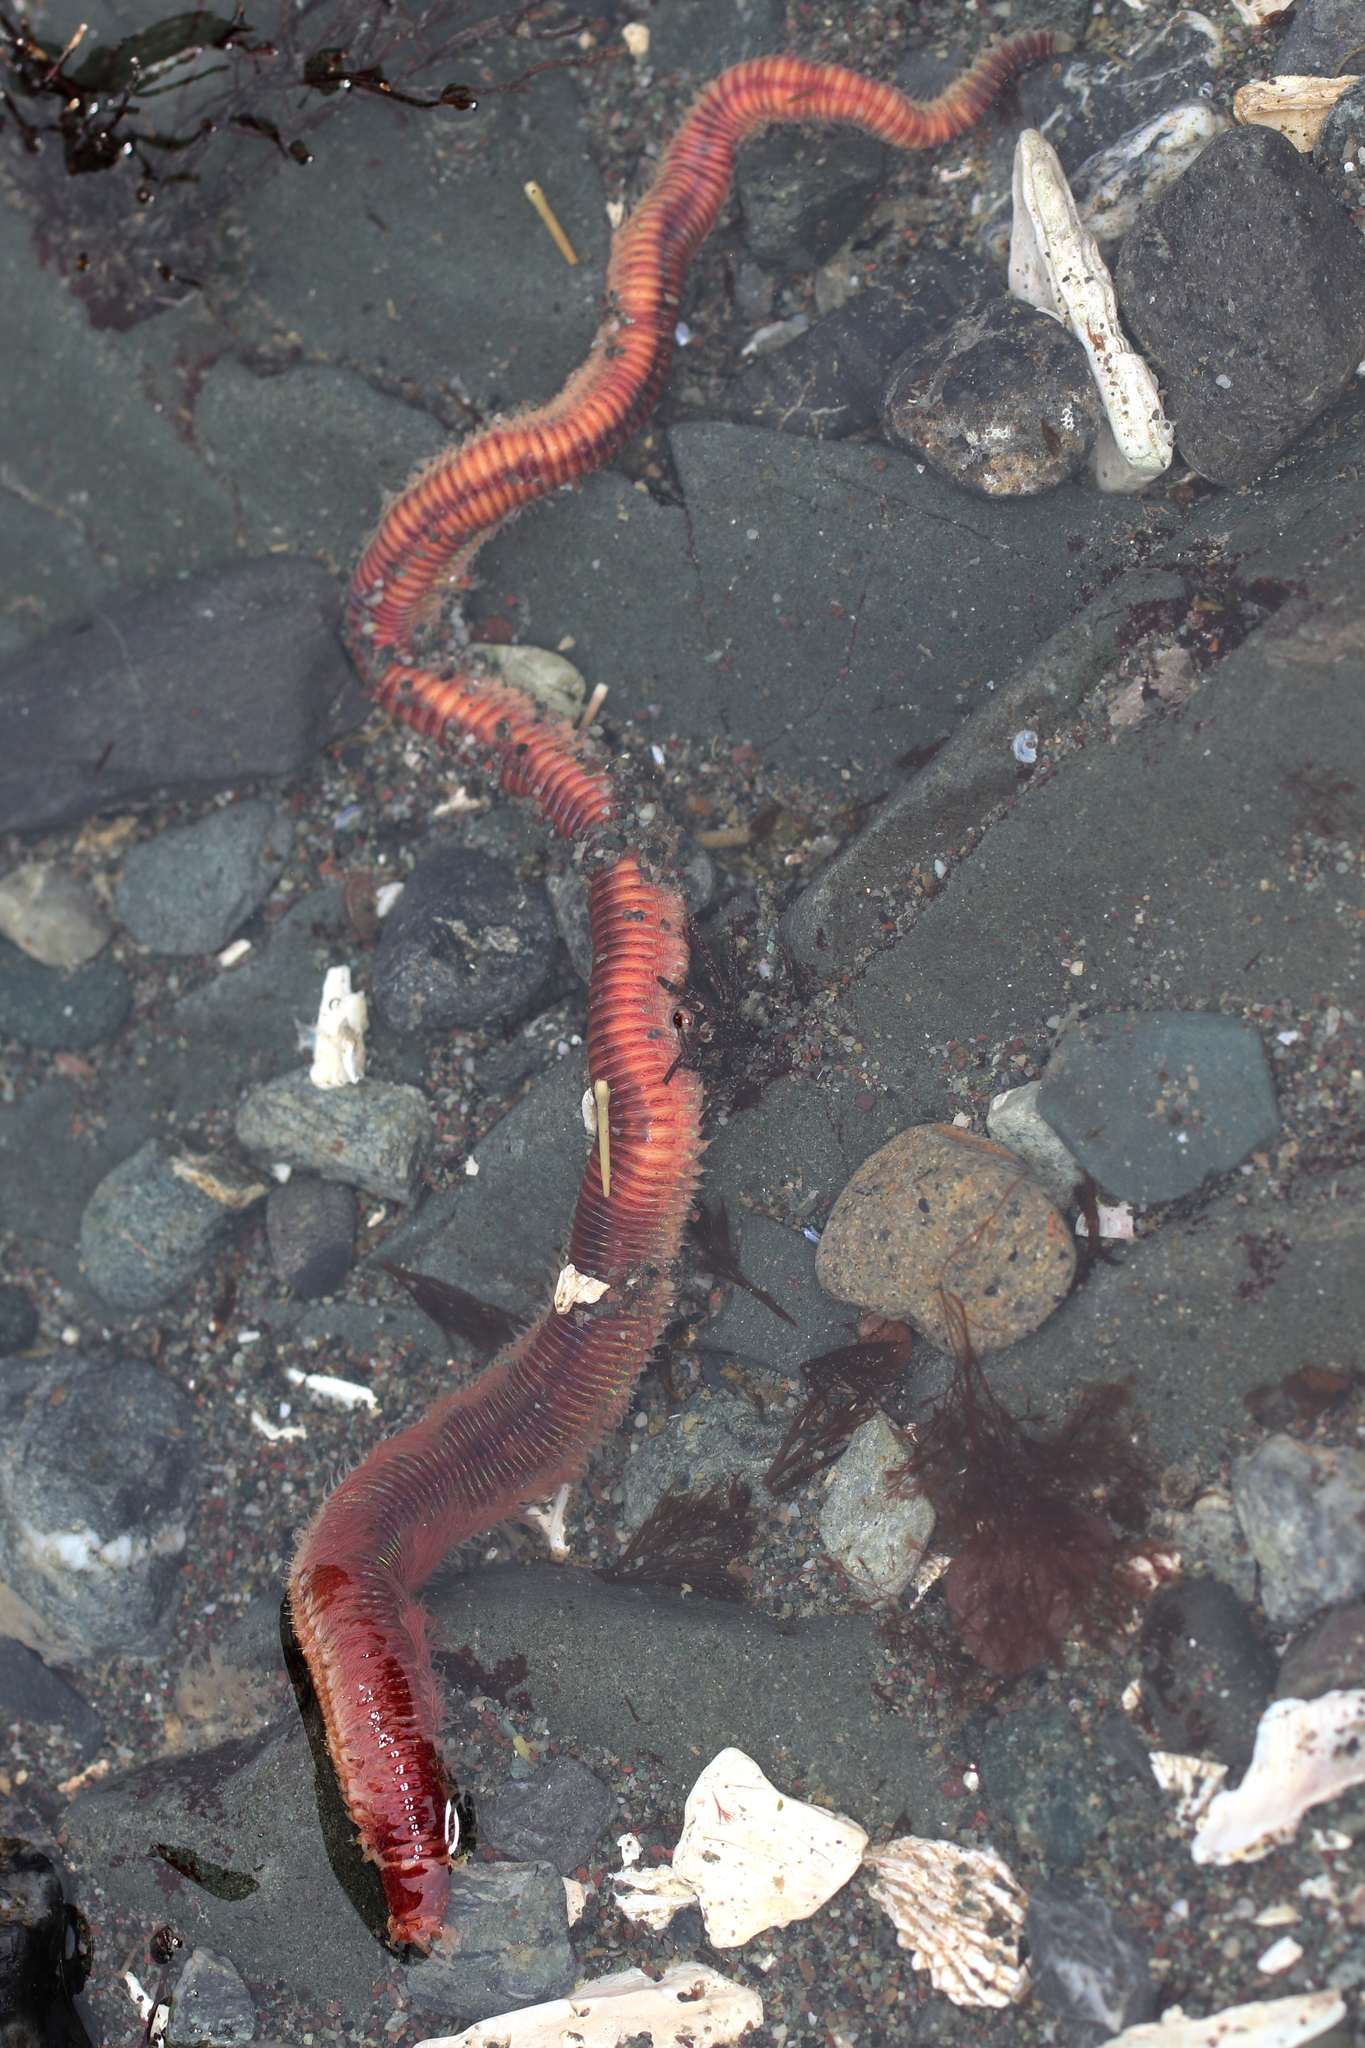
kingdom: Animalia
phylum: Annelida
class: Polychaeta
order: Eunicida
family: Eunicidae
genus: Leodice
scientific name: Leodice valens
